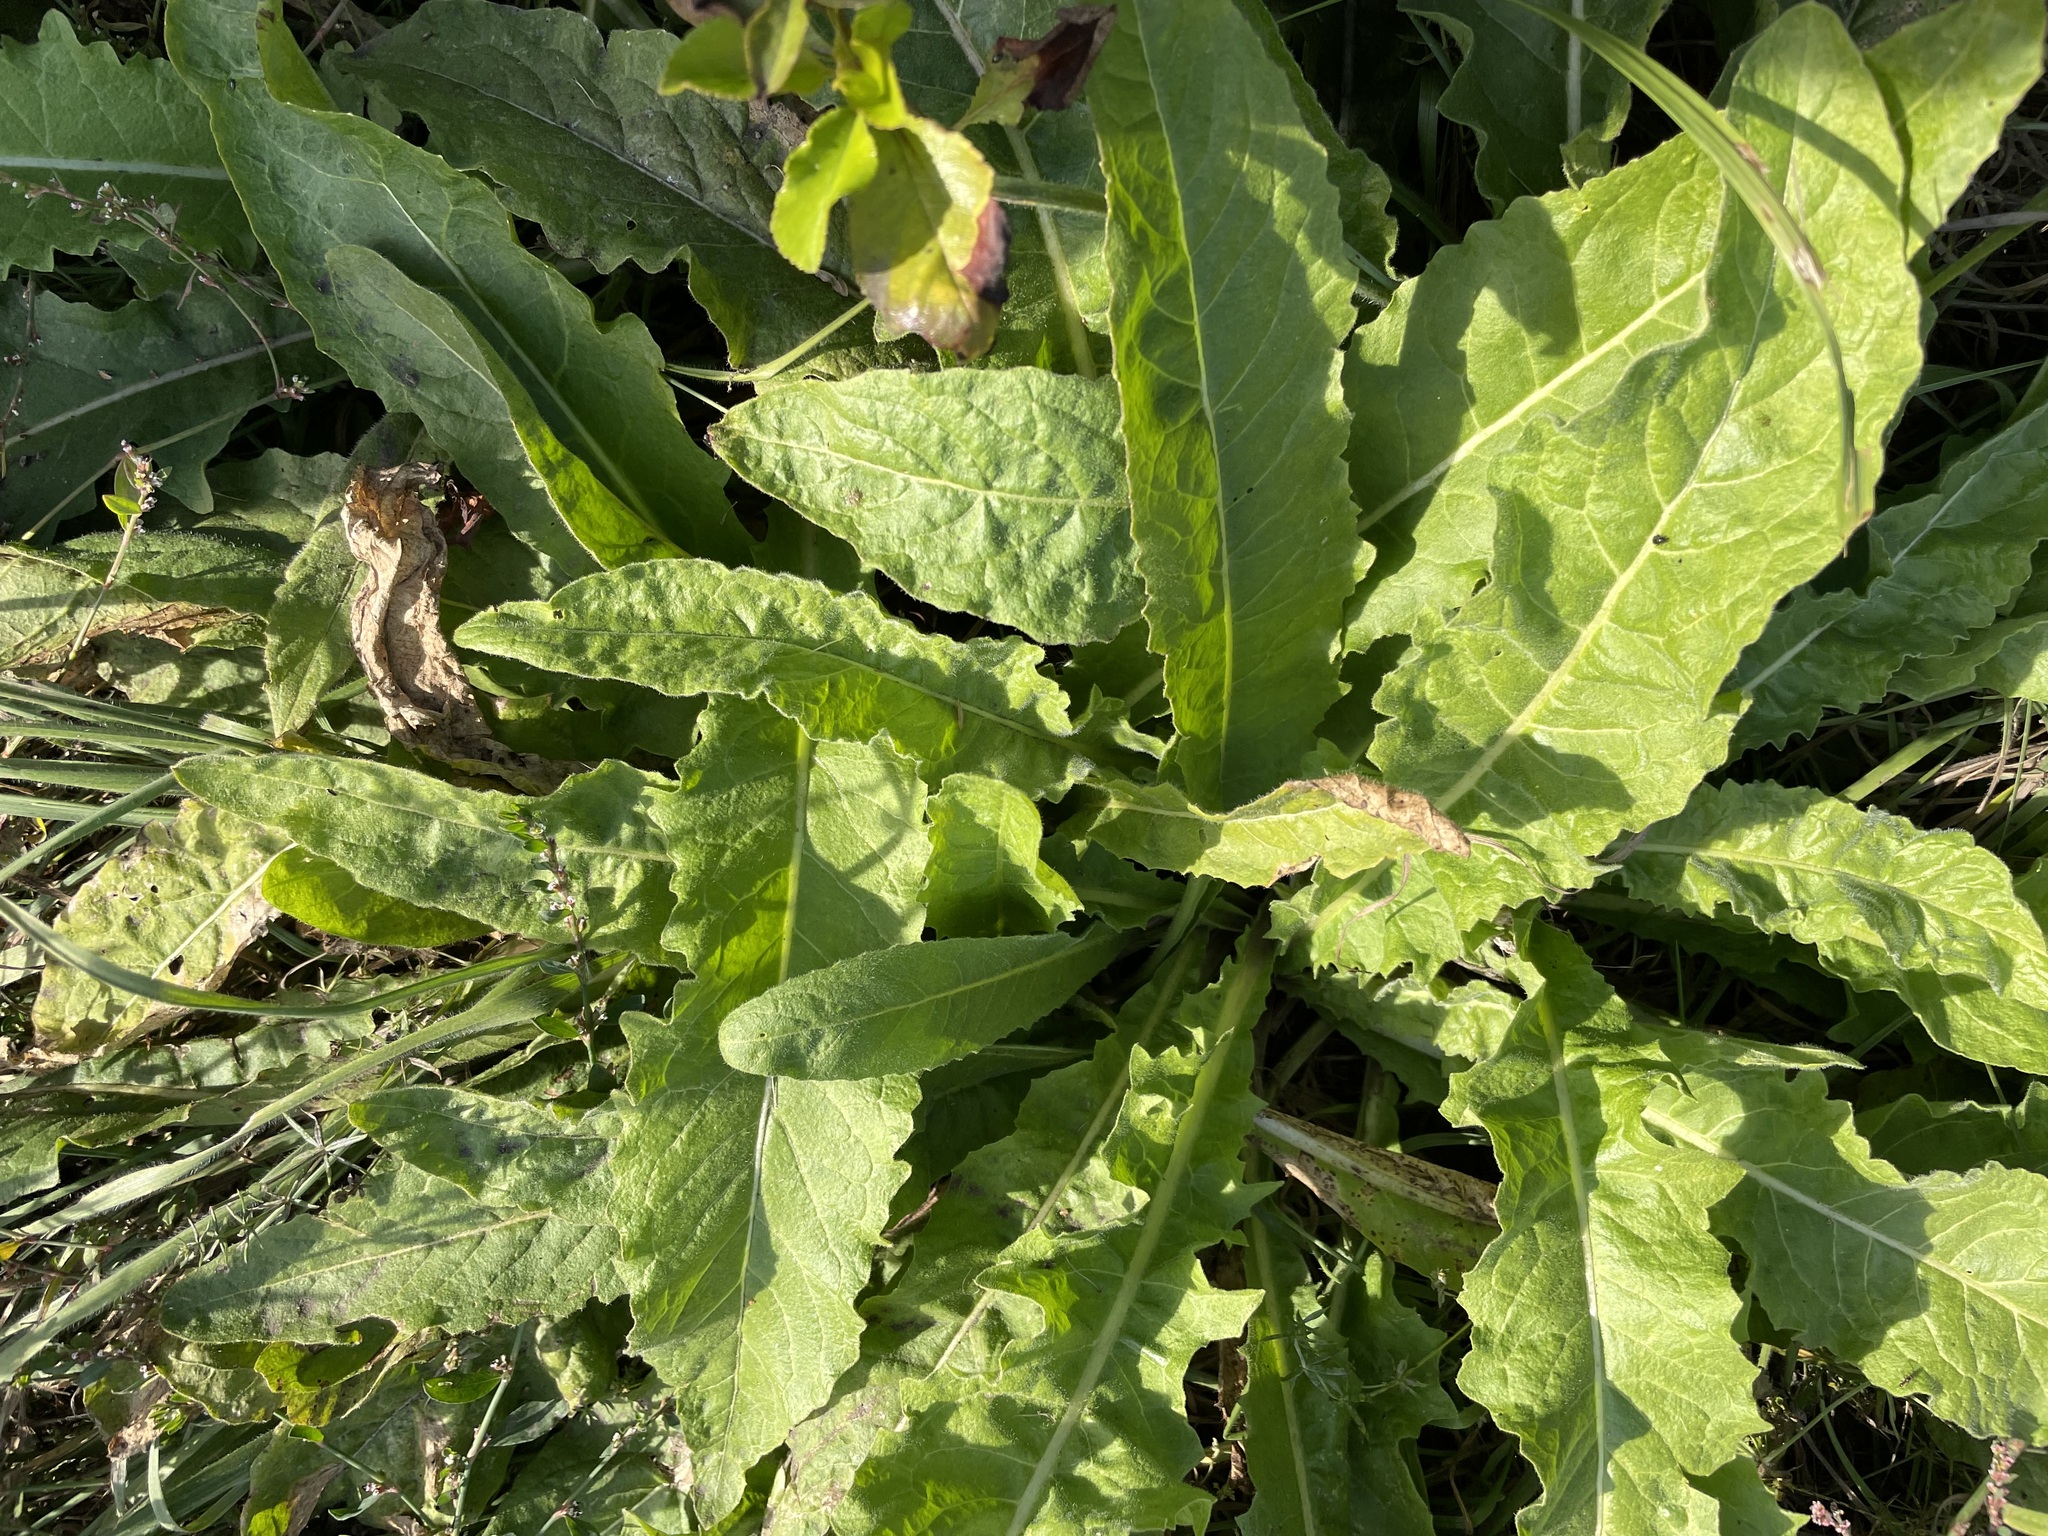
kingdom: Plantae
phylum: Tracheophyta
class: Magnoliopsida
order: Brassicales
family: Brassicaceae
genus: Bunias
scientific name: Bunias orientalis
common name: Warty-cabbage
